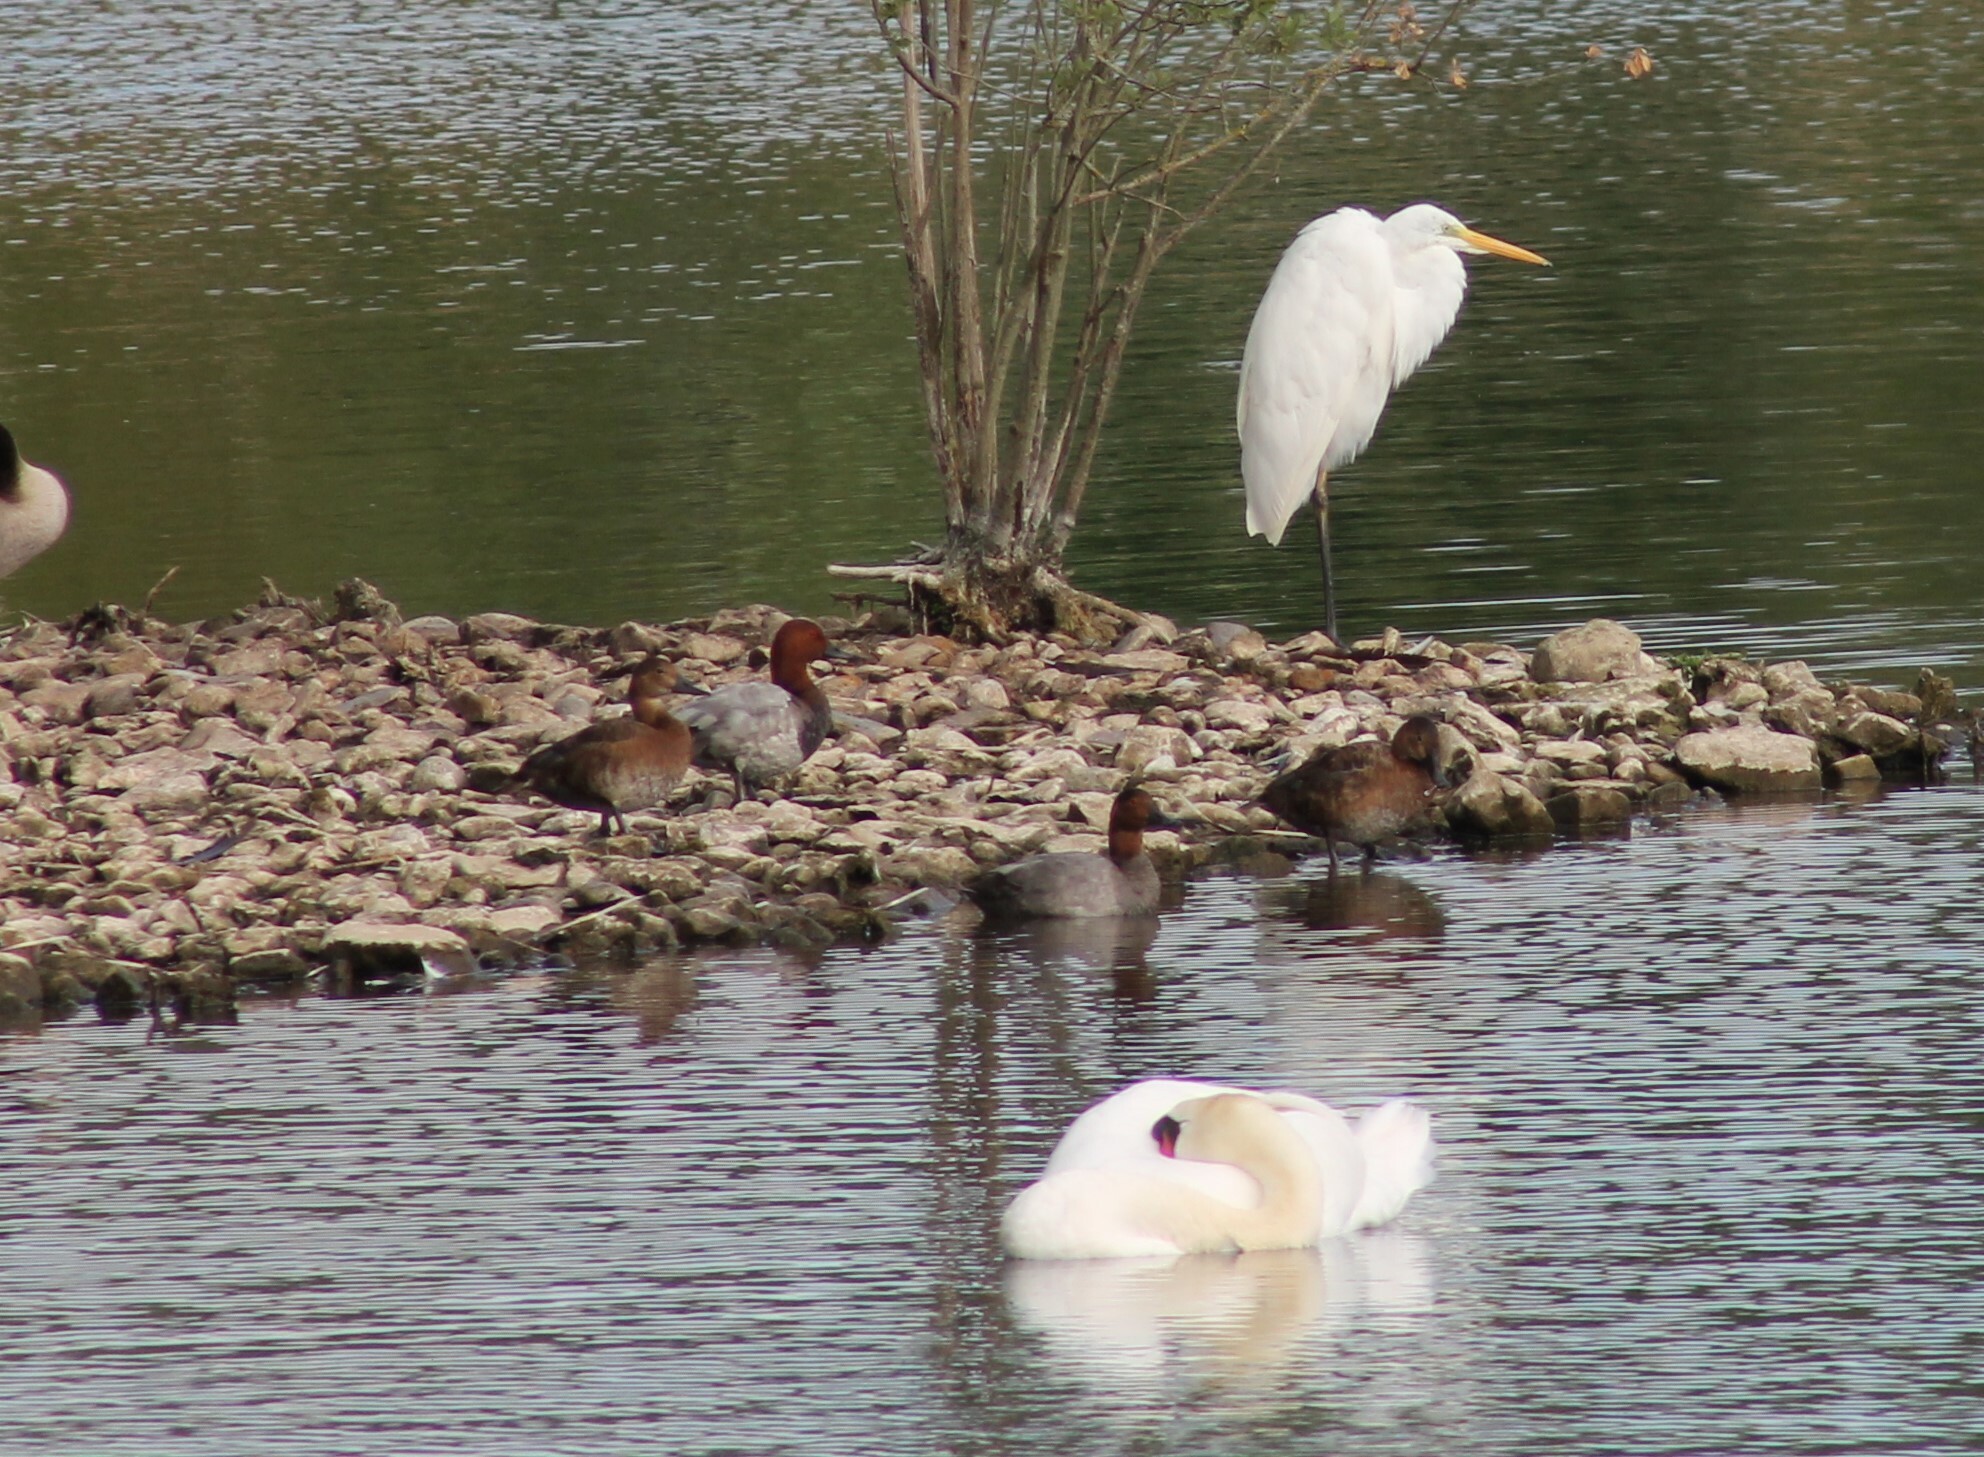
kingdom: Animalia
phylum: Chordata
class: Aves
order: Anseriformes
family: Anatidae
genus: Aythya
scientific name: Aythya ferina
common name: Common pochard
